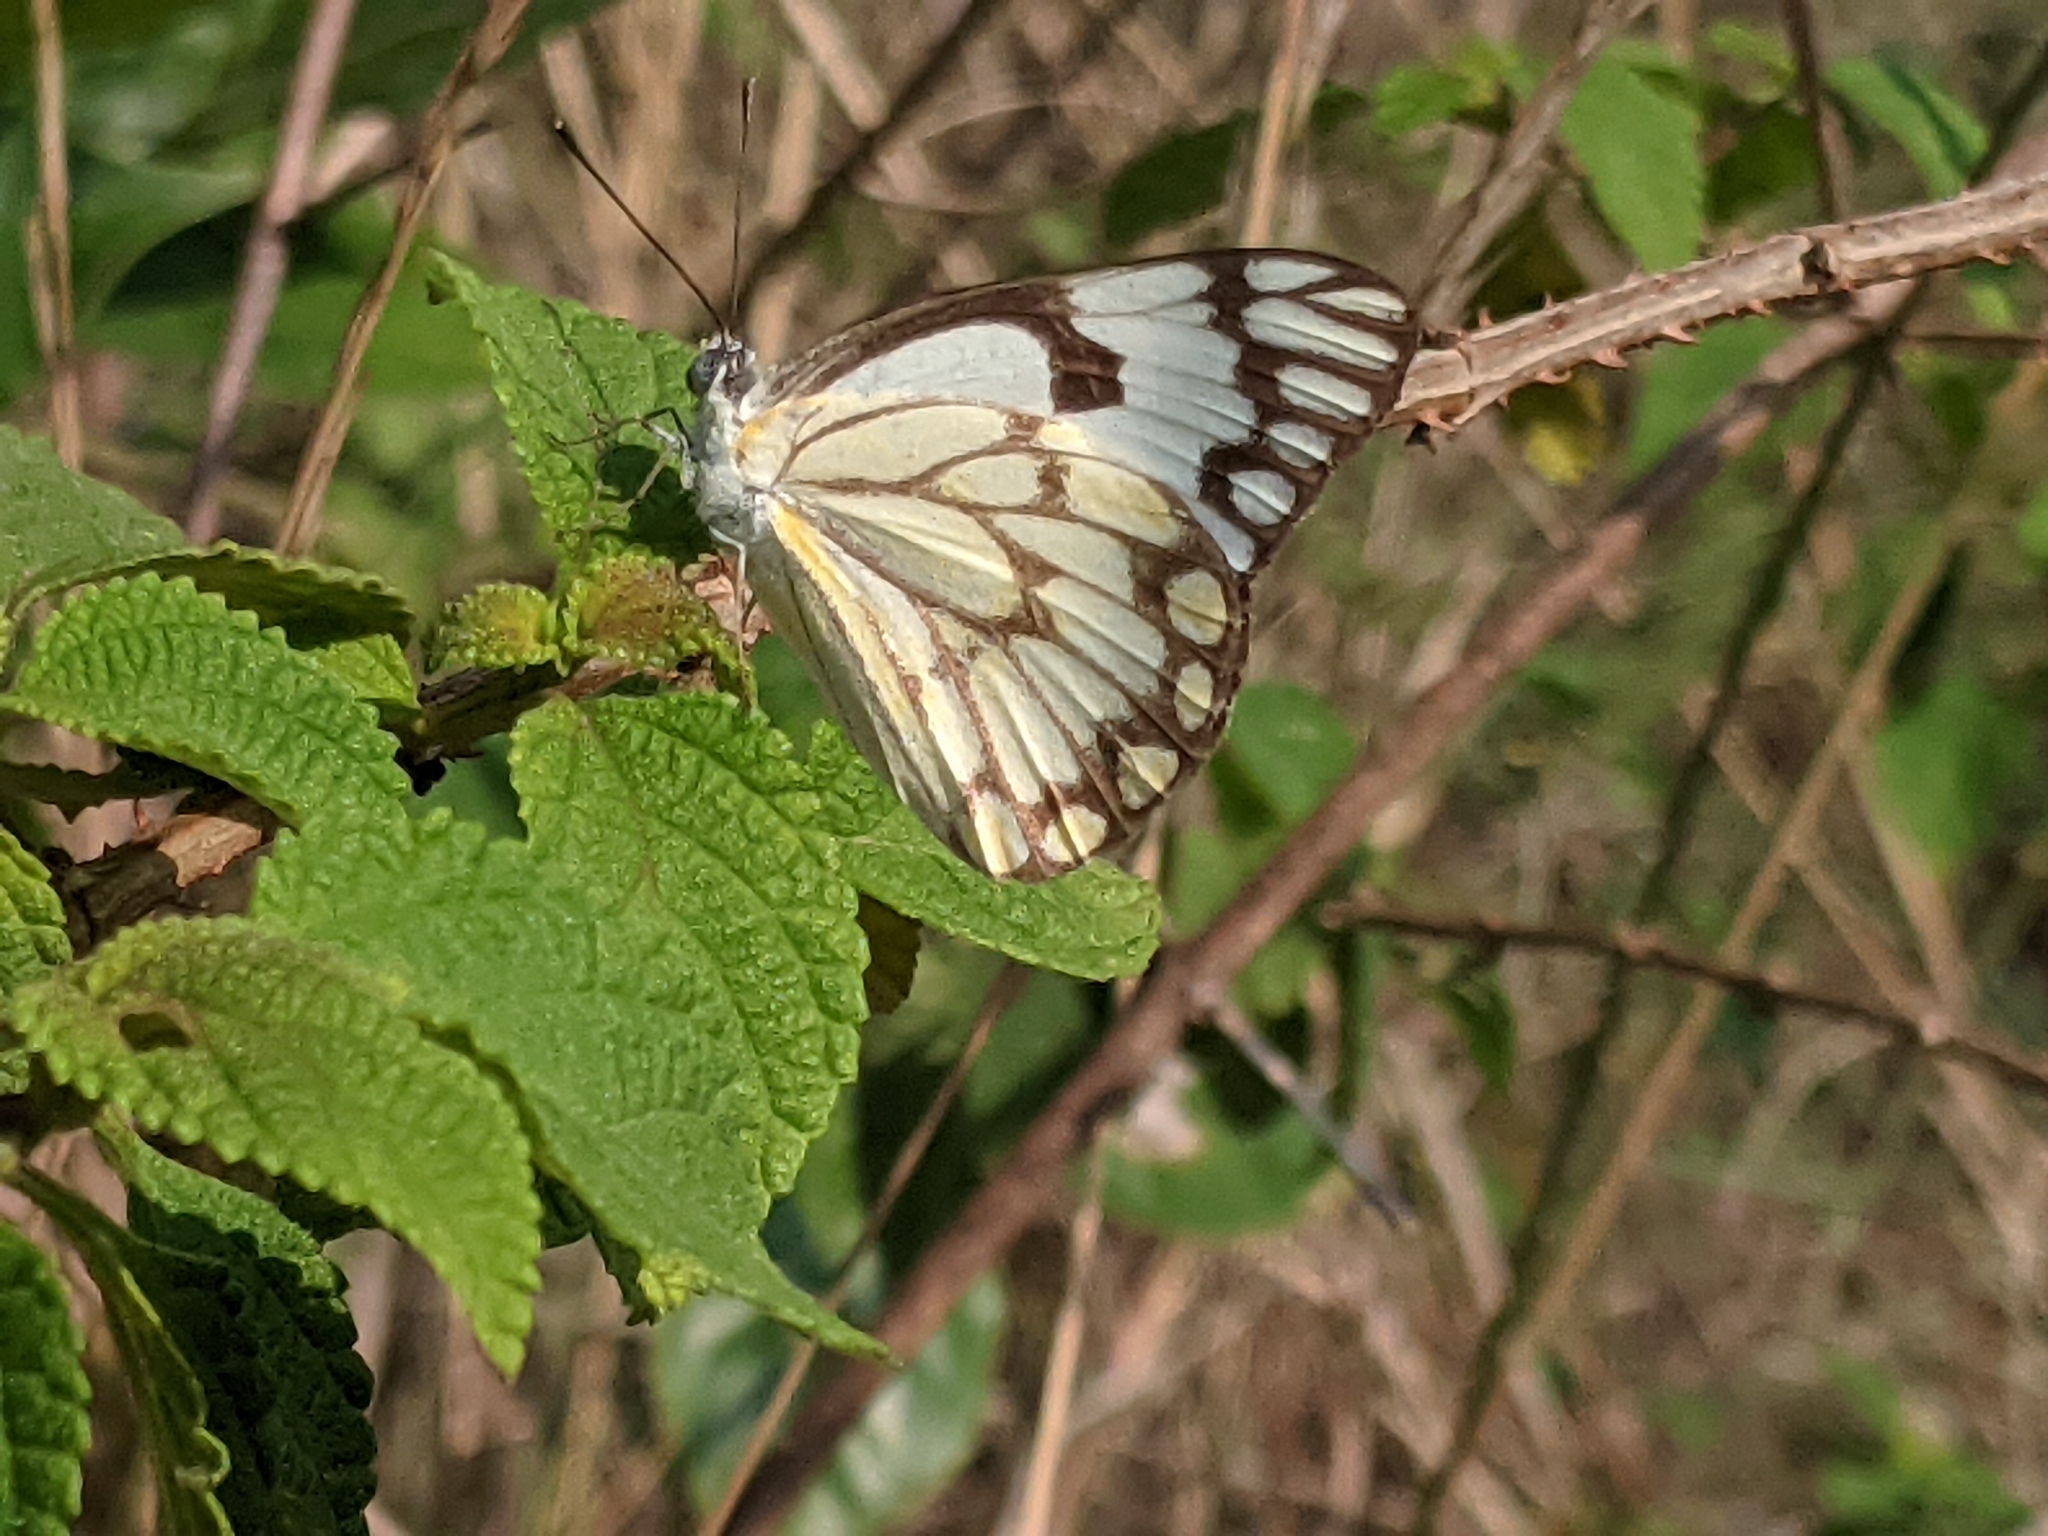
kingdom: Animalia
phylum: Arthropoda
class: Insecta
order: Lepidoptera
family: Pieridae
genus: Belenois
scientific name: Belenois aurota
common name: Brown-veined white
